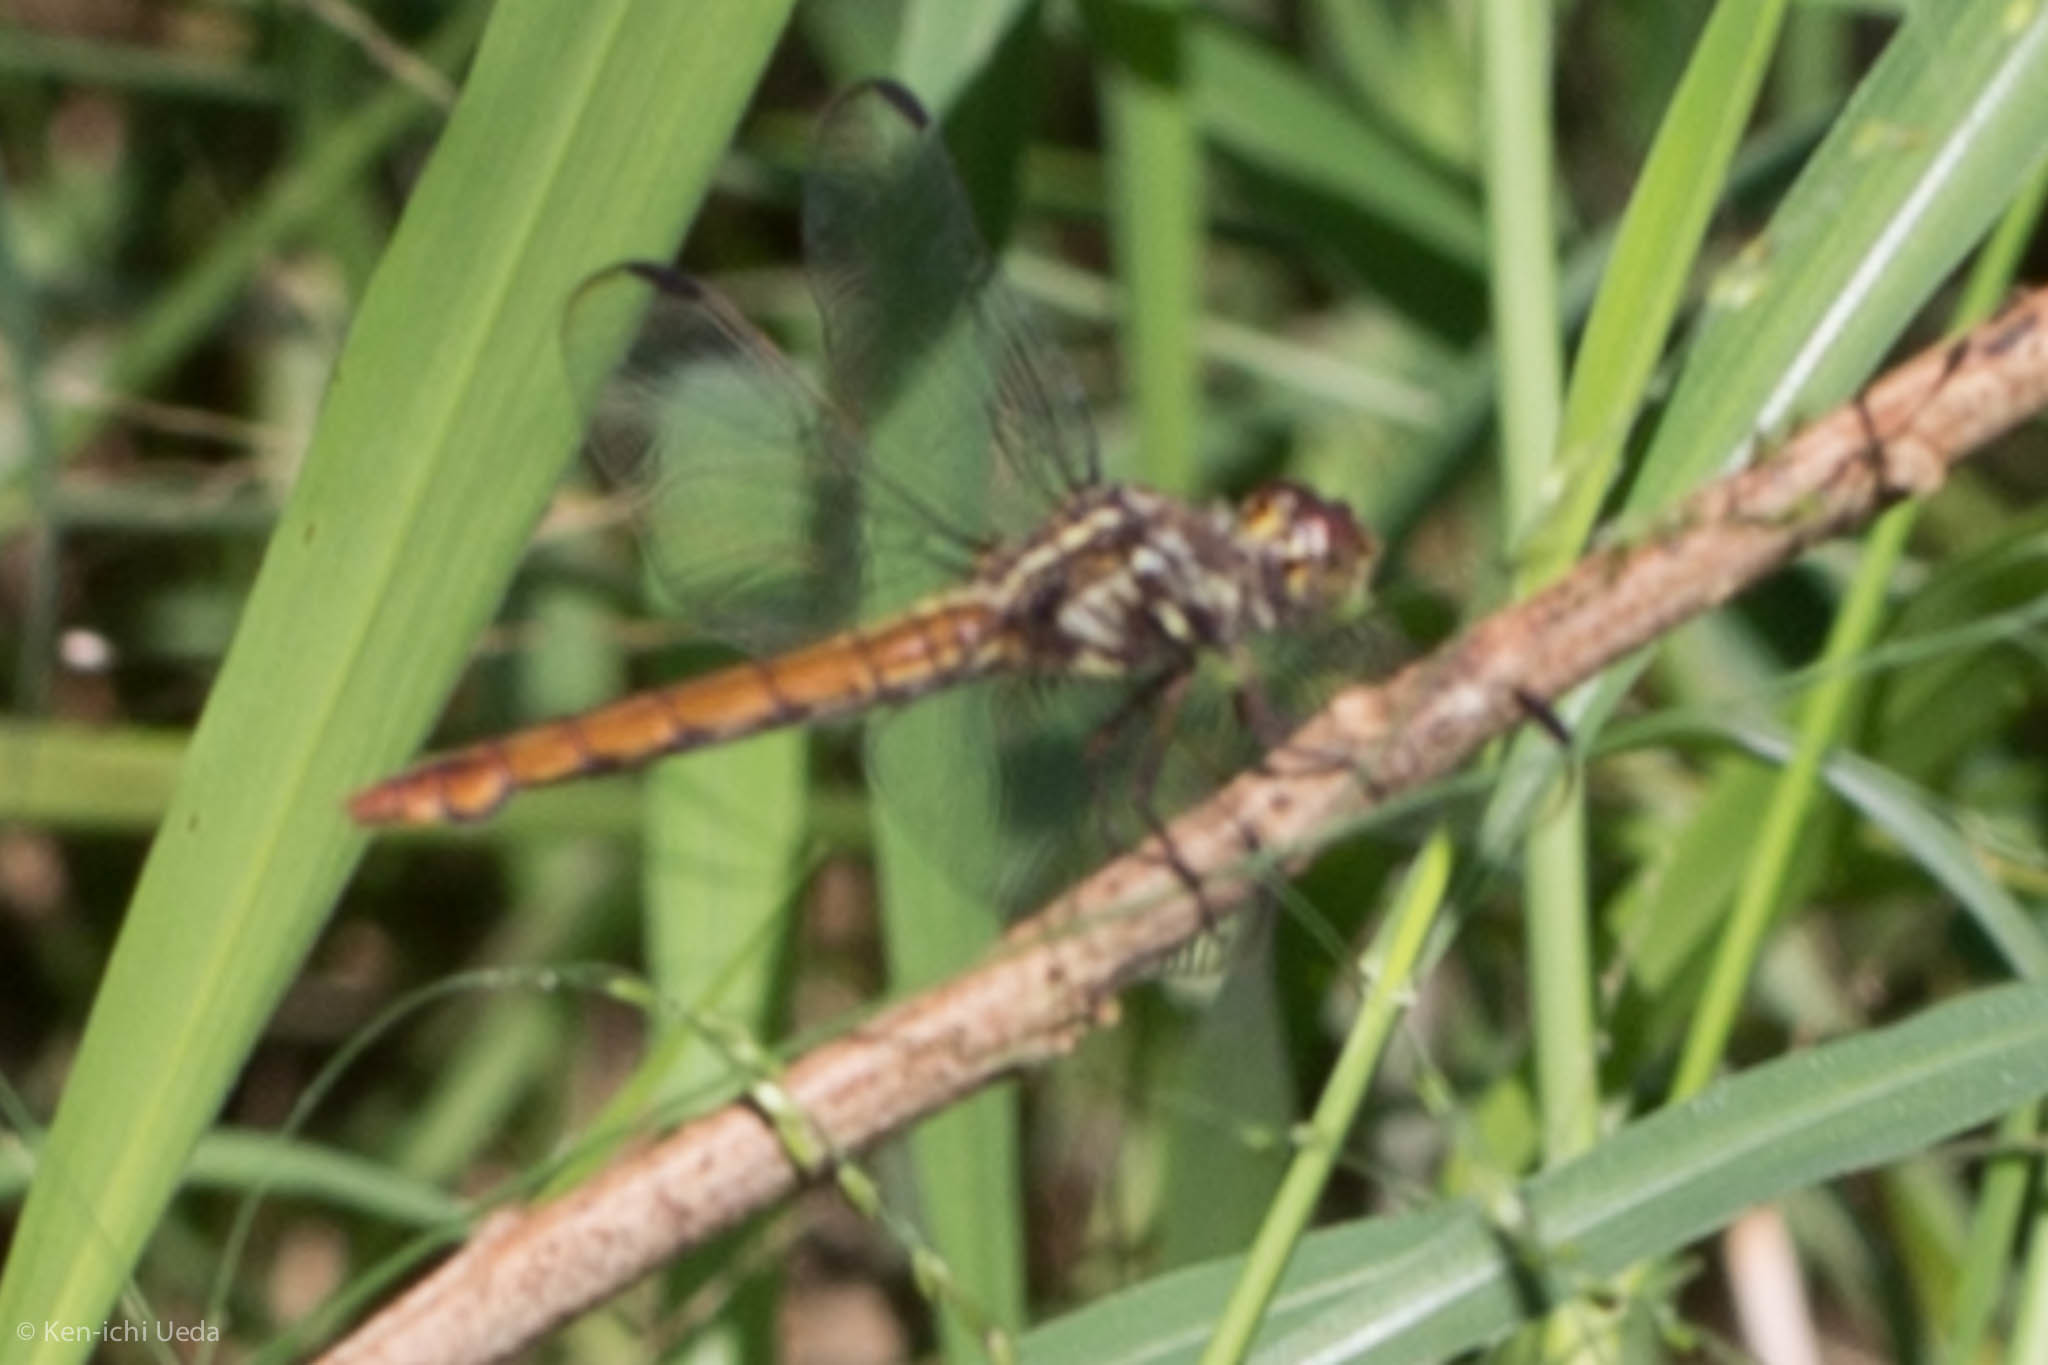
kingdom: Animalia
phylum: Arthropoda
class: Insecta
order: Odonata
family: Libellulidae
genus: Orthemis
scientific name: Orthemis ferruginea
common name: Roseate skimmer
